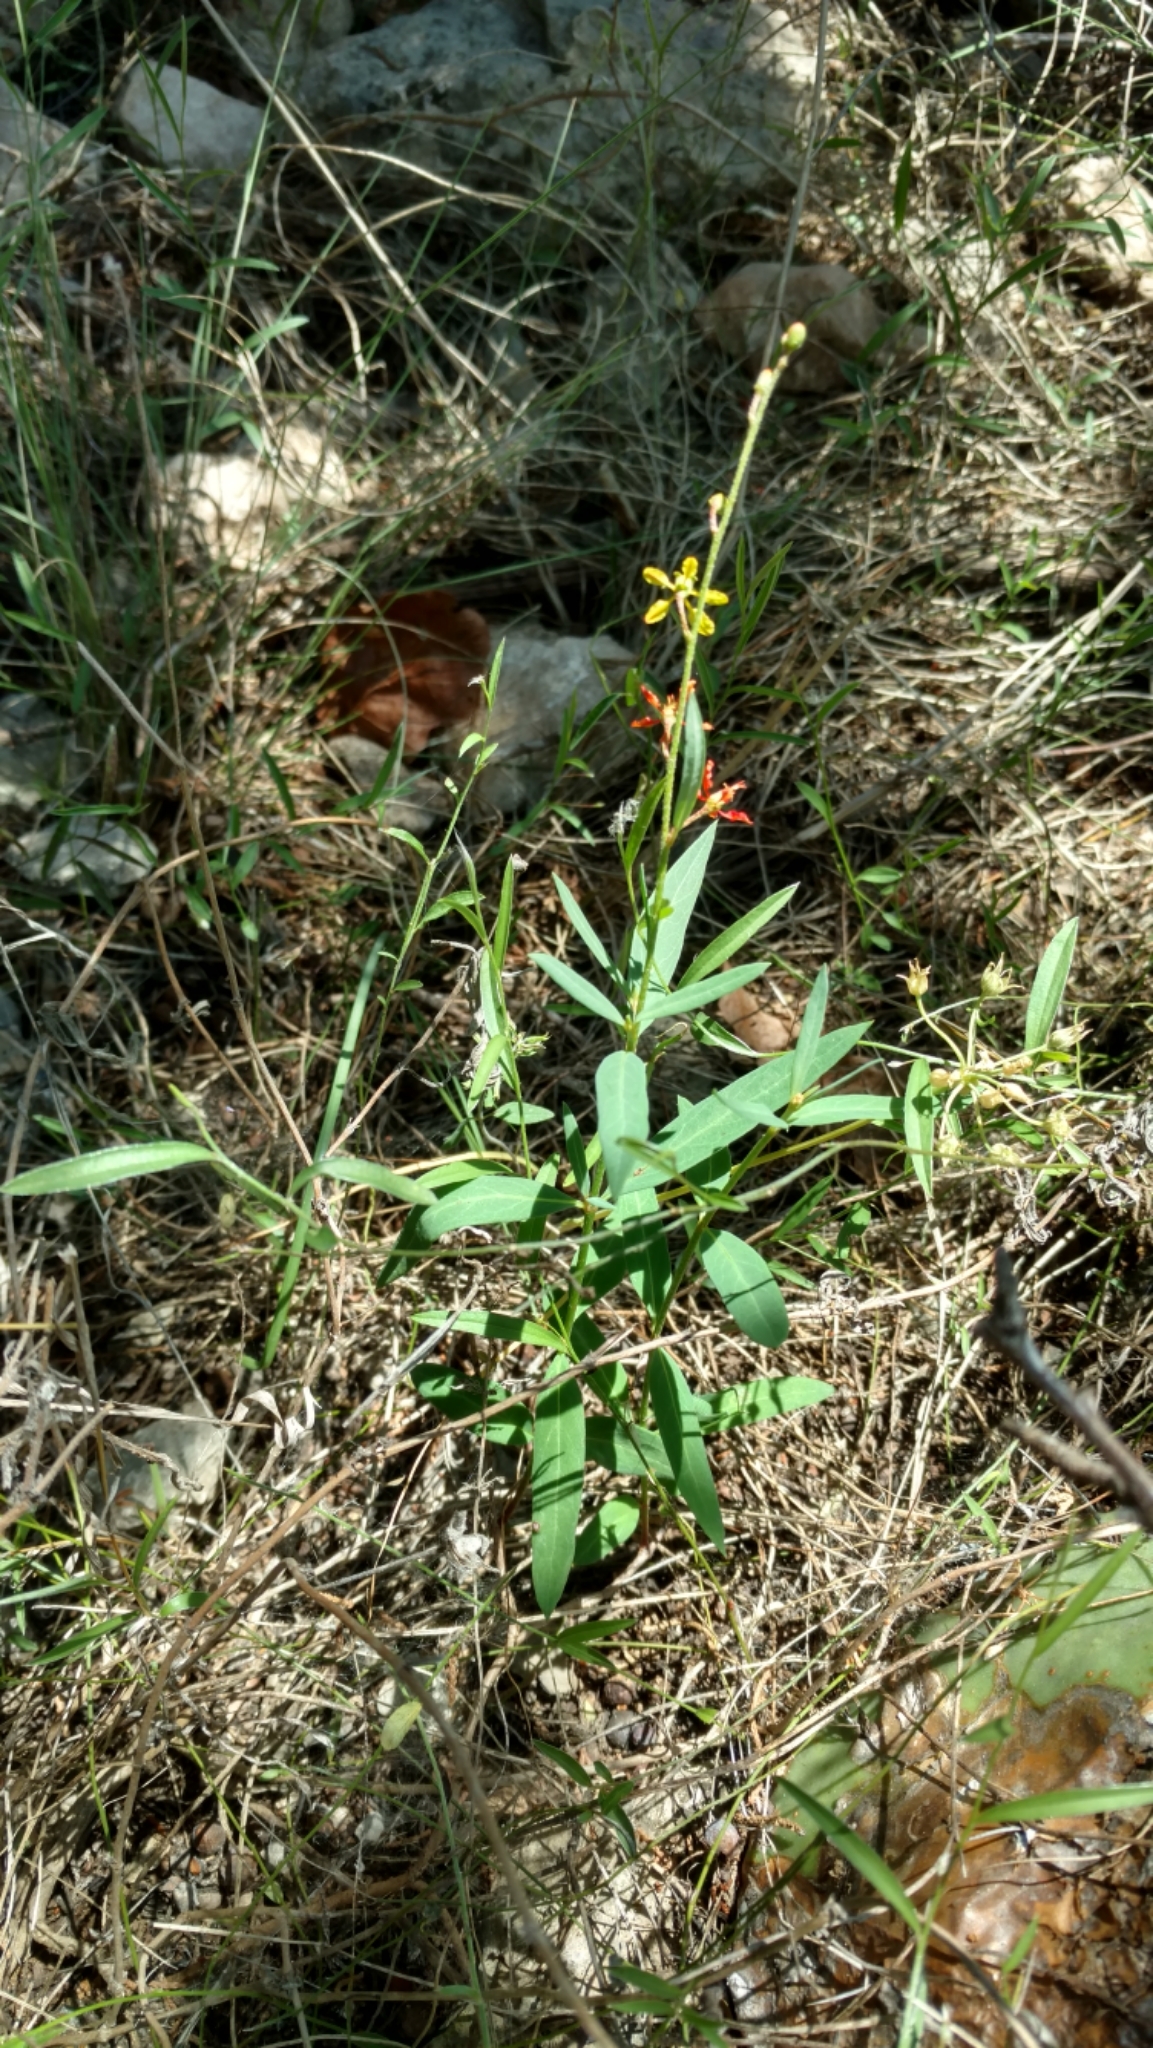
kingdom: Plantae
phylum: Tracheophyta
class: Magnoliopsida
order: Malpighiales
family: Malpighiaceae
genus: Galphimia
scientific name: Galphimia angustifolia
